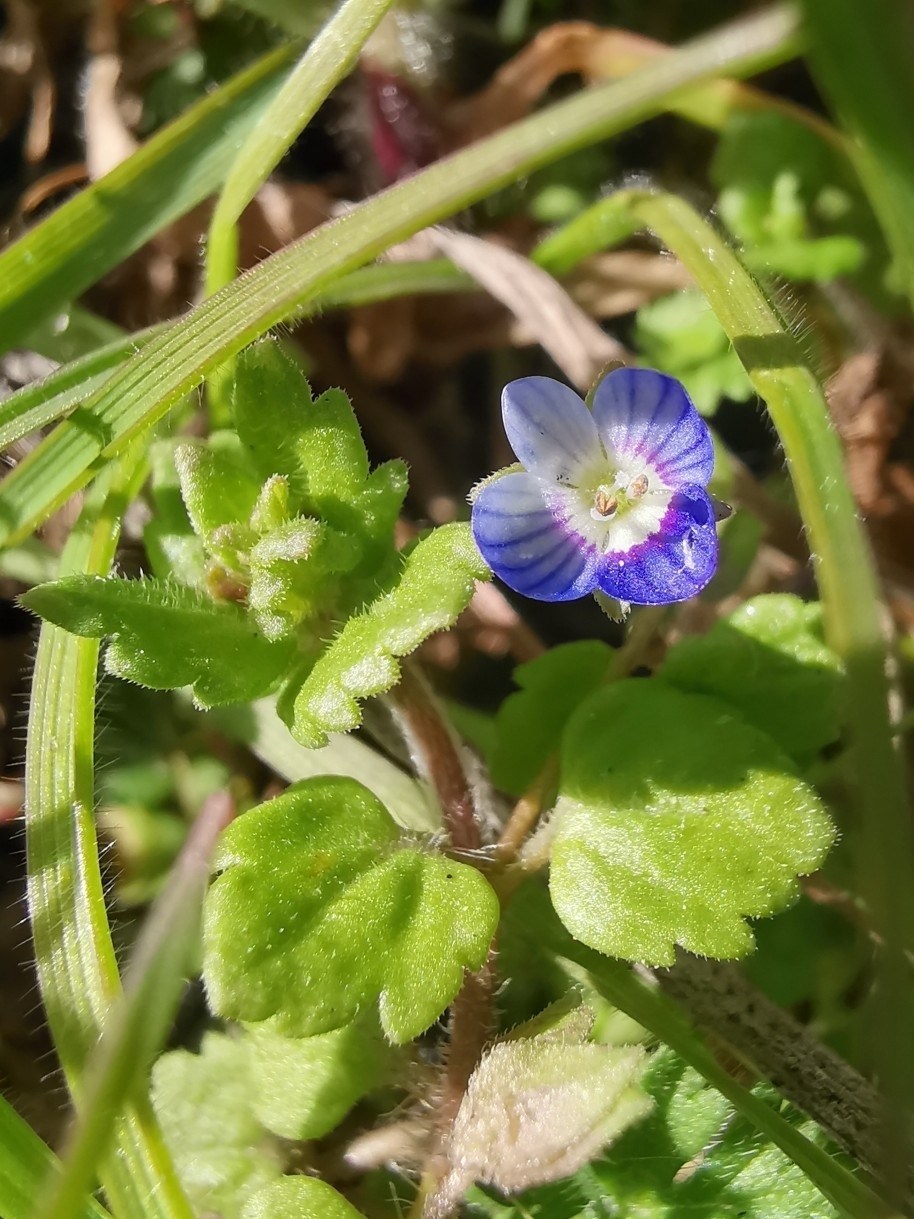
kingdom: Plantae
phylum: Tracheophyta
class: Magnoliopsida
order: Lamiales
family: Plantaginaceae
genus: Veronica
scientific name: Veronica polita
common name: Grey field-speedwell
